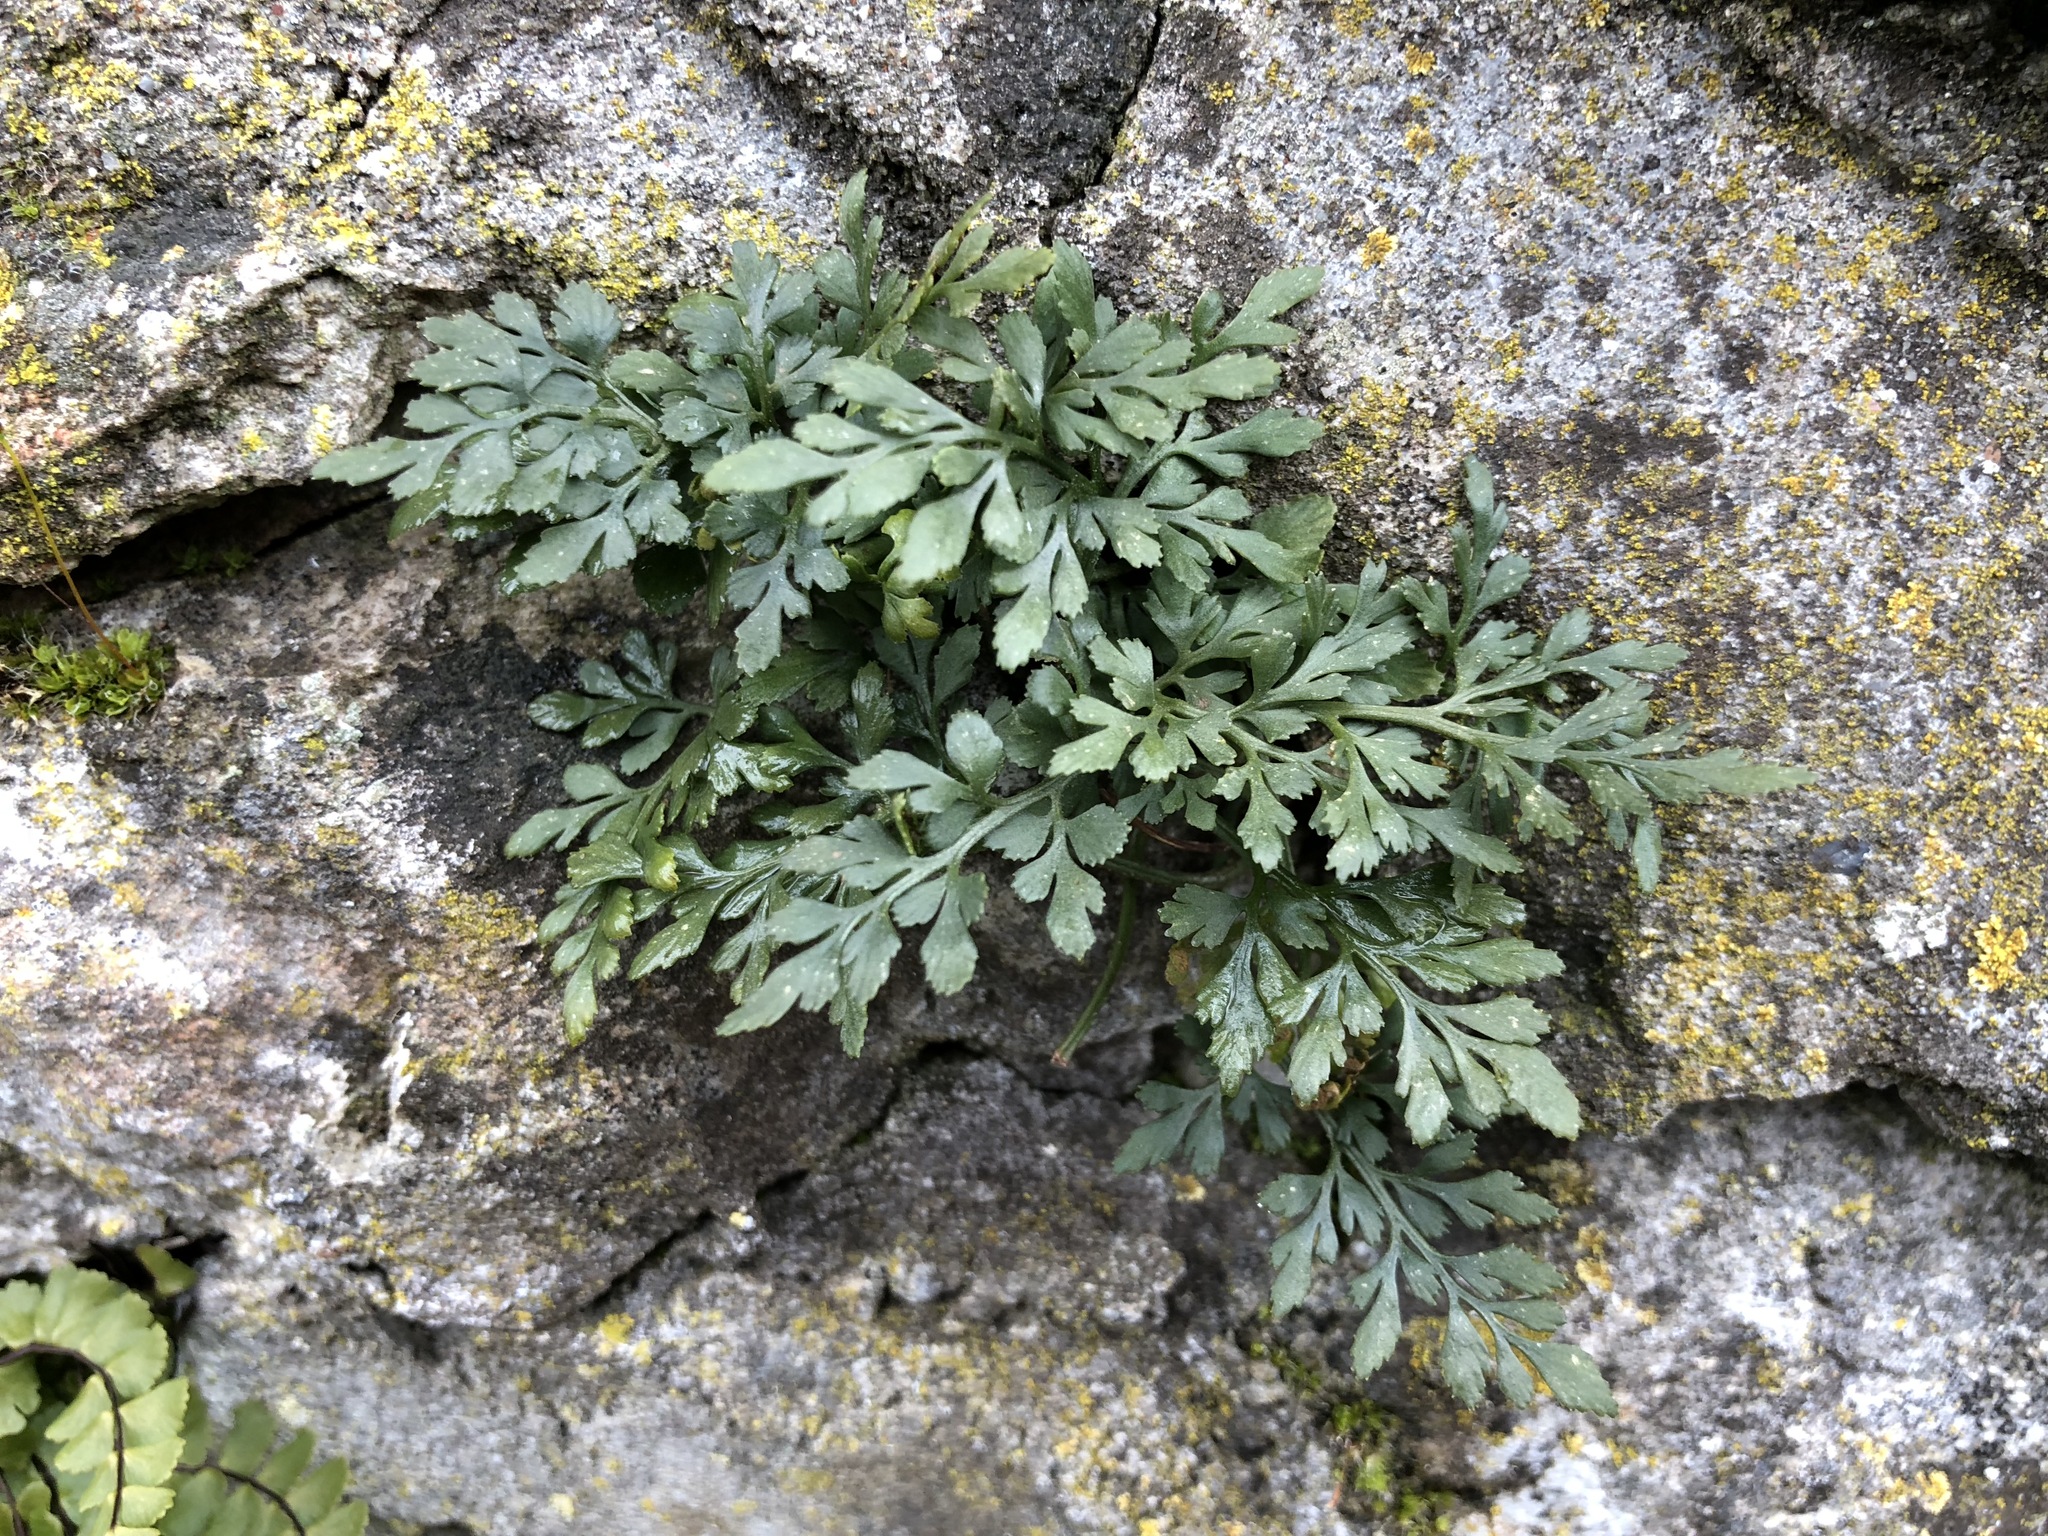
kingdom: Plantae
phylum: Tracheophyta
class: Polypodiopsida
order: Polypodiales
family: Aspleniaceae
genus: Asplenium
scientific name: Asplenium ruta-muraria
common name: Wall-rue
